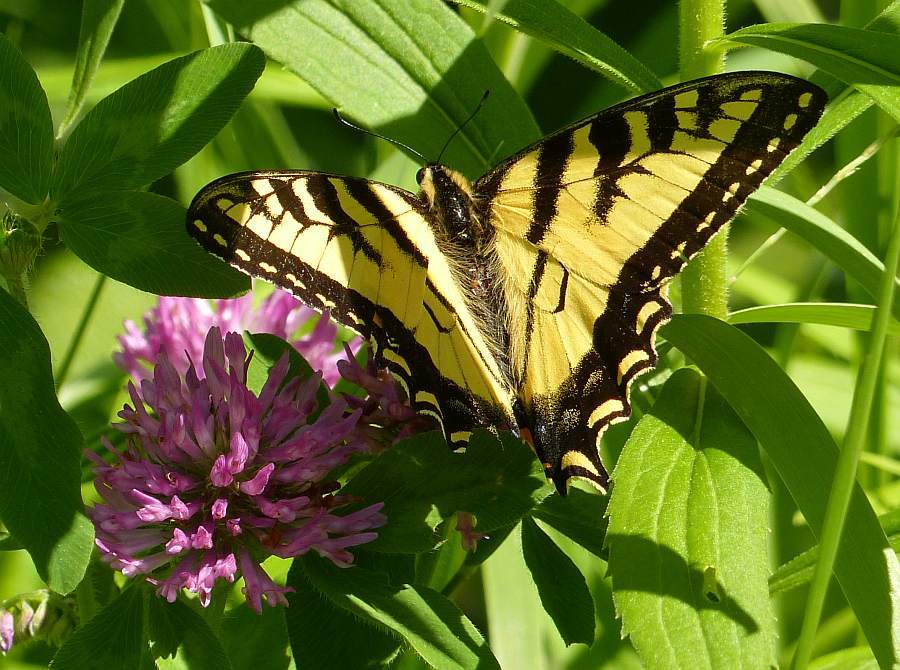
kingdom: Animalia
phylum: Arthropoda
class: Insecta
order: Lepidoptera
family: Papilionidae
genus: Papilio
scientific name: Papilio canadensis
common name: Canadian tiger swallowtail
